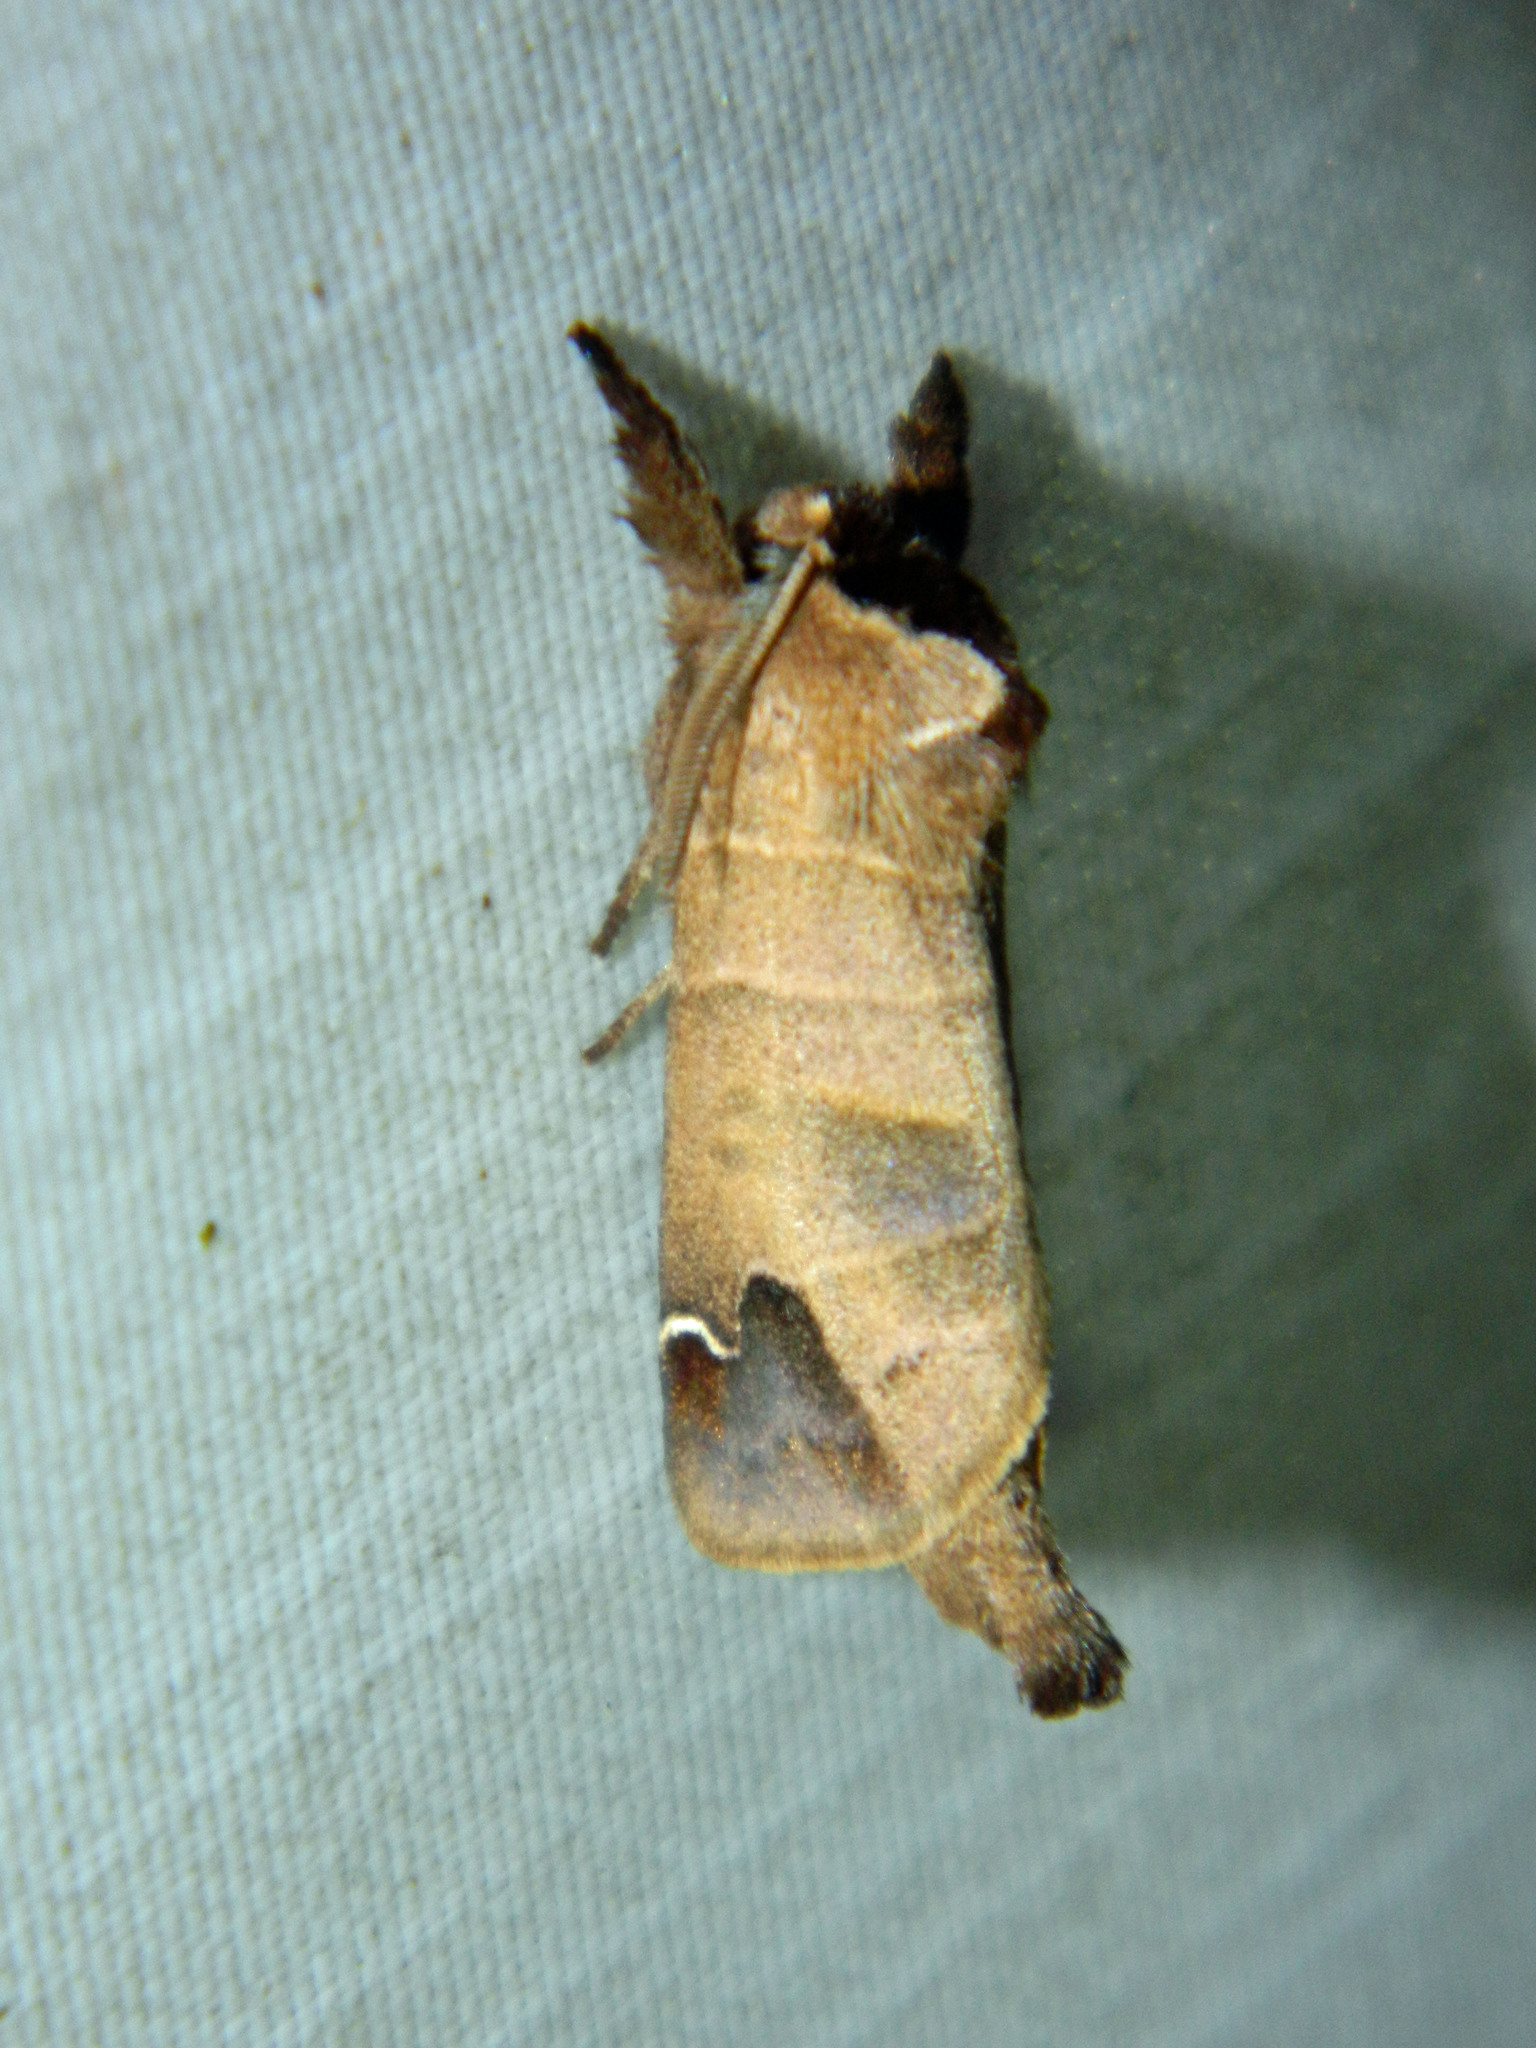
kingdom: Animalia
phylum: Arthropoda
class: Insecta
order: Lepidoptera
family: Notodontidae
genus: Clostera
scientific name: Clostera albosigma
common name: Sigmoid prominent
